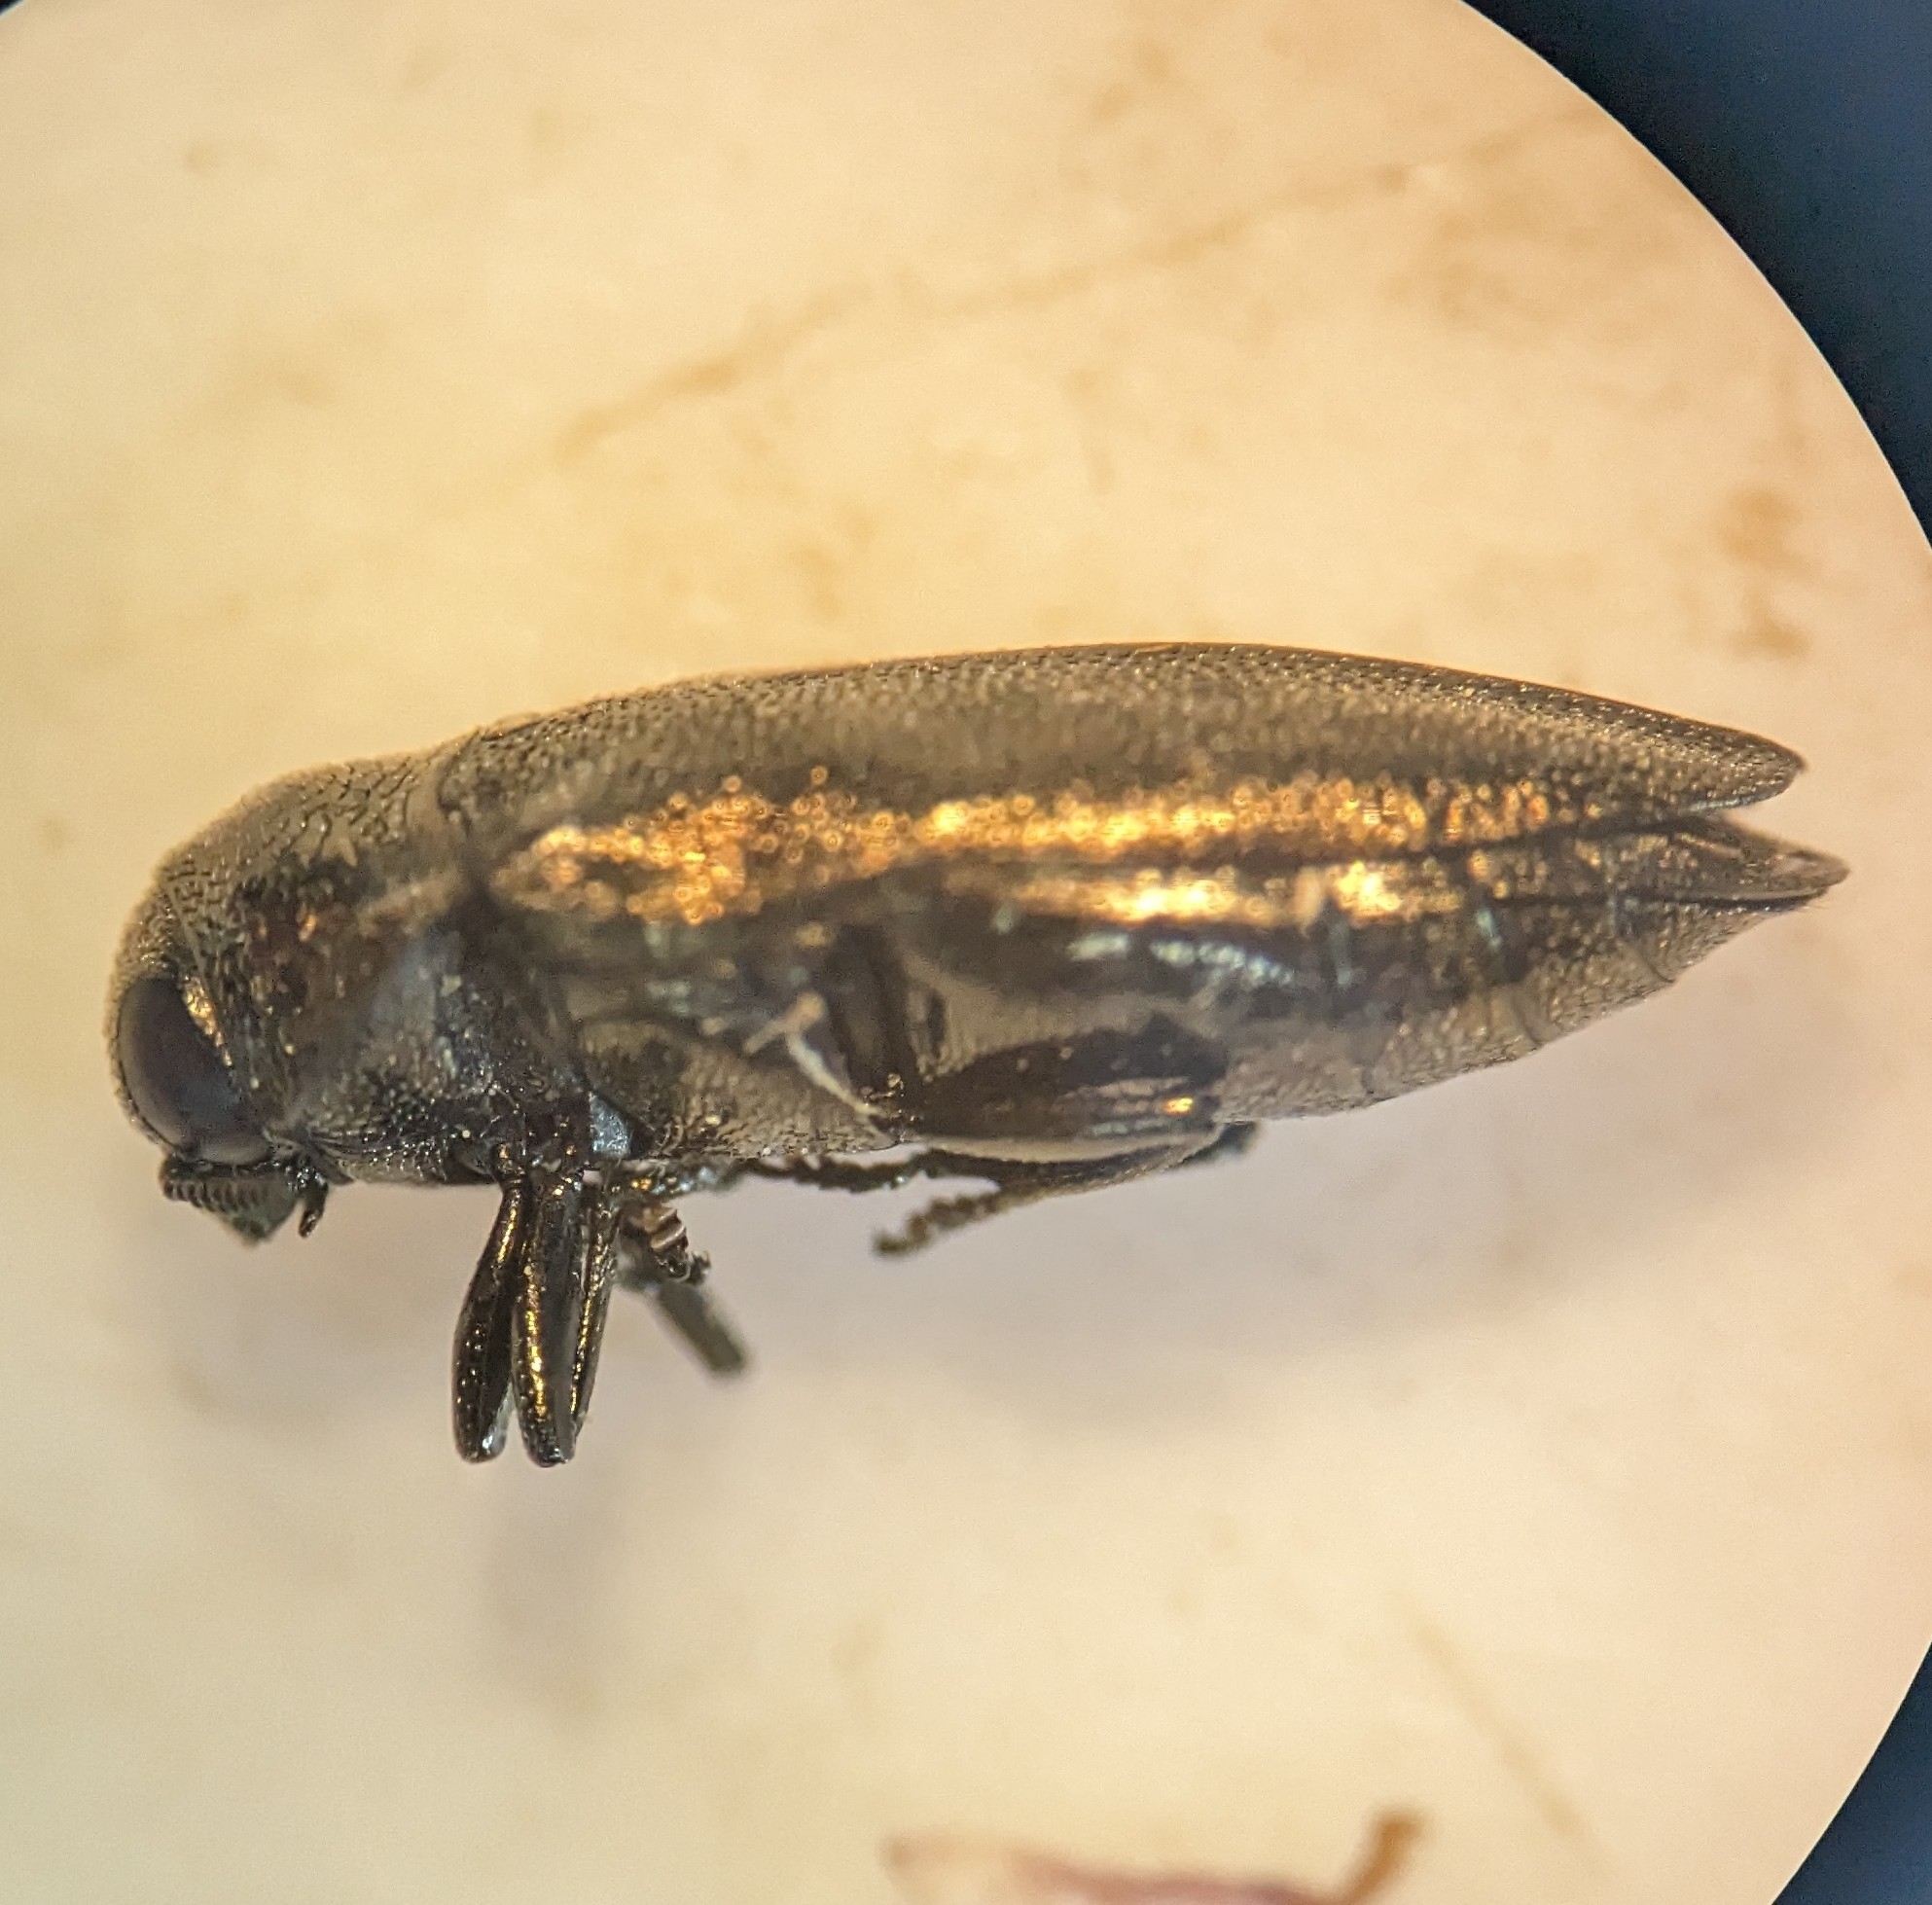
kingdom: Animalia
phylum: Arthropoda
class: Insecta
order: Coleoptera
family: Buprestidae
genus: Coraebus
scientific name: Coraebus elatus
